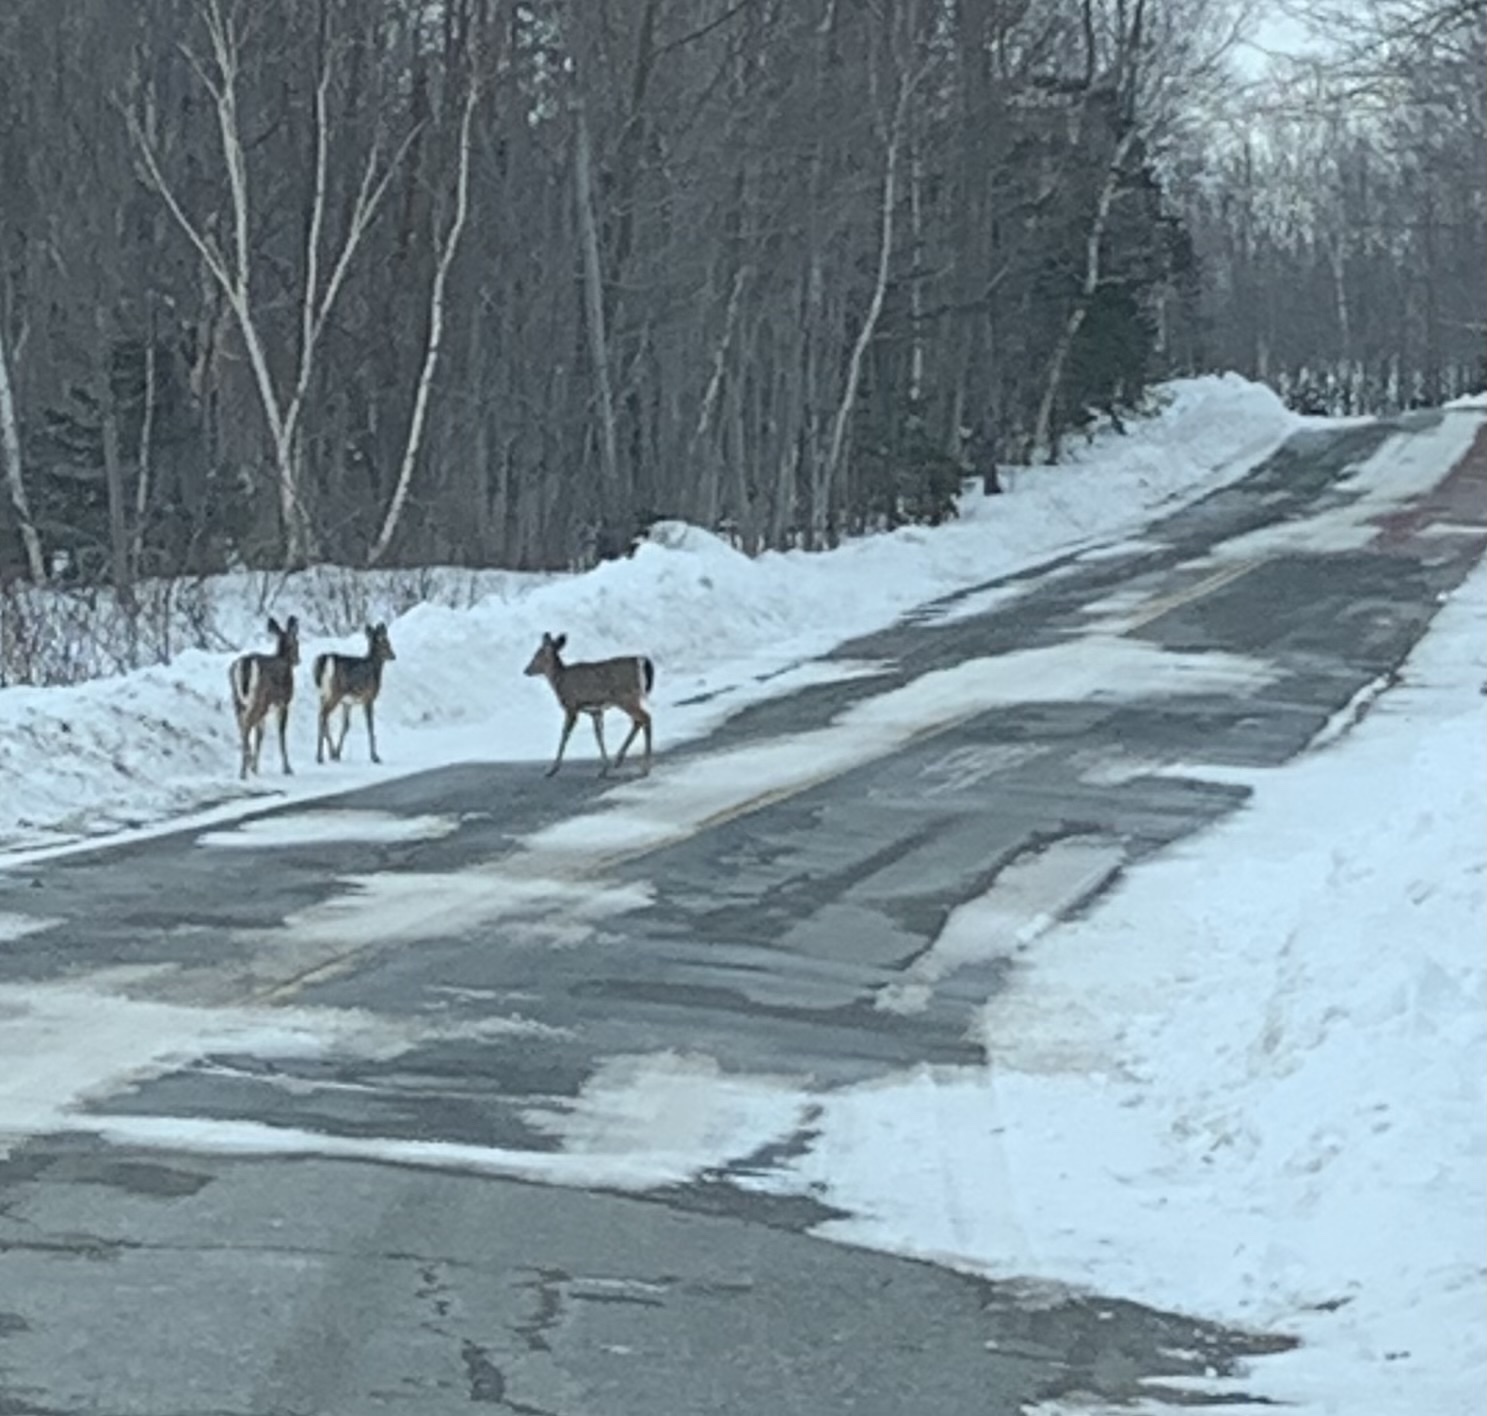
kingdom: Animalia
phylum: Chordata
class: Mammalia
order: Artiodactyla
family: Cervidae
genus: Odocoileus
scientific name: Odocoileus virginianus
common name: White-tailed deer
